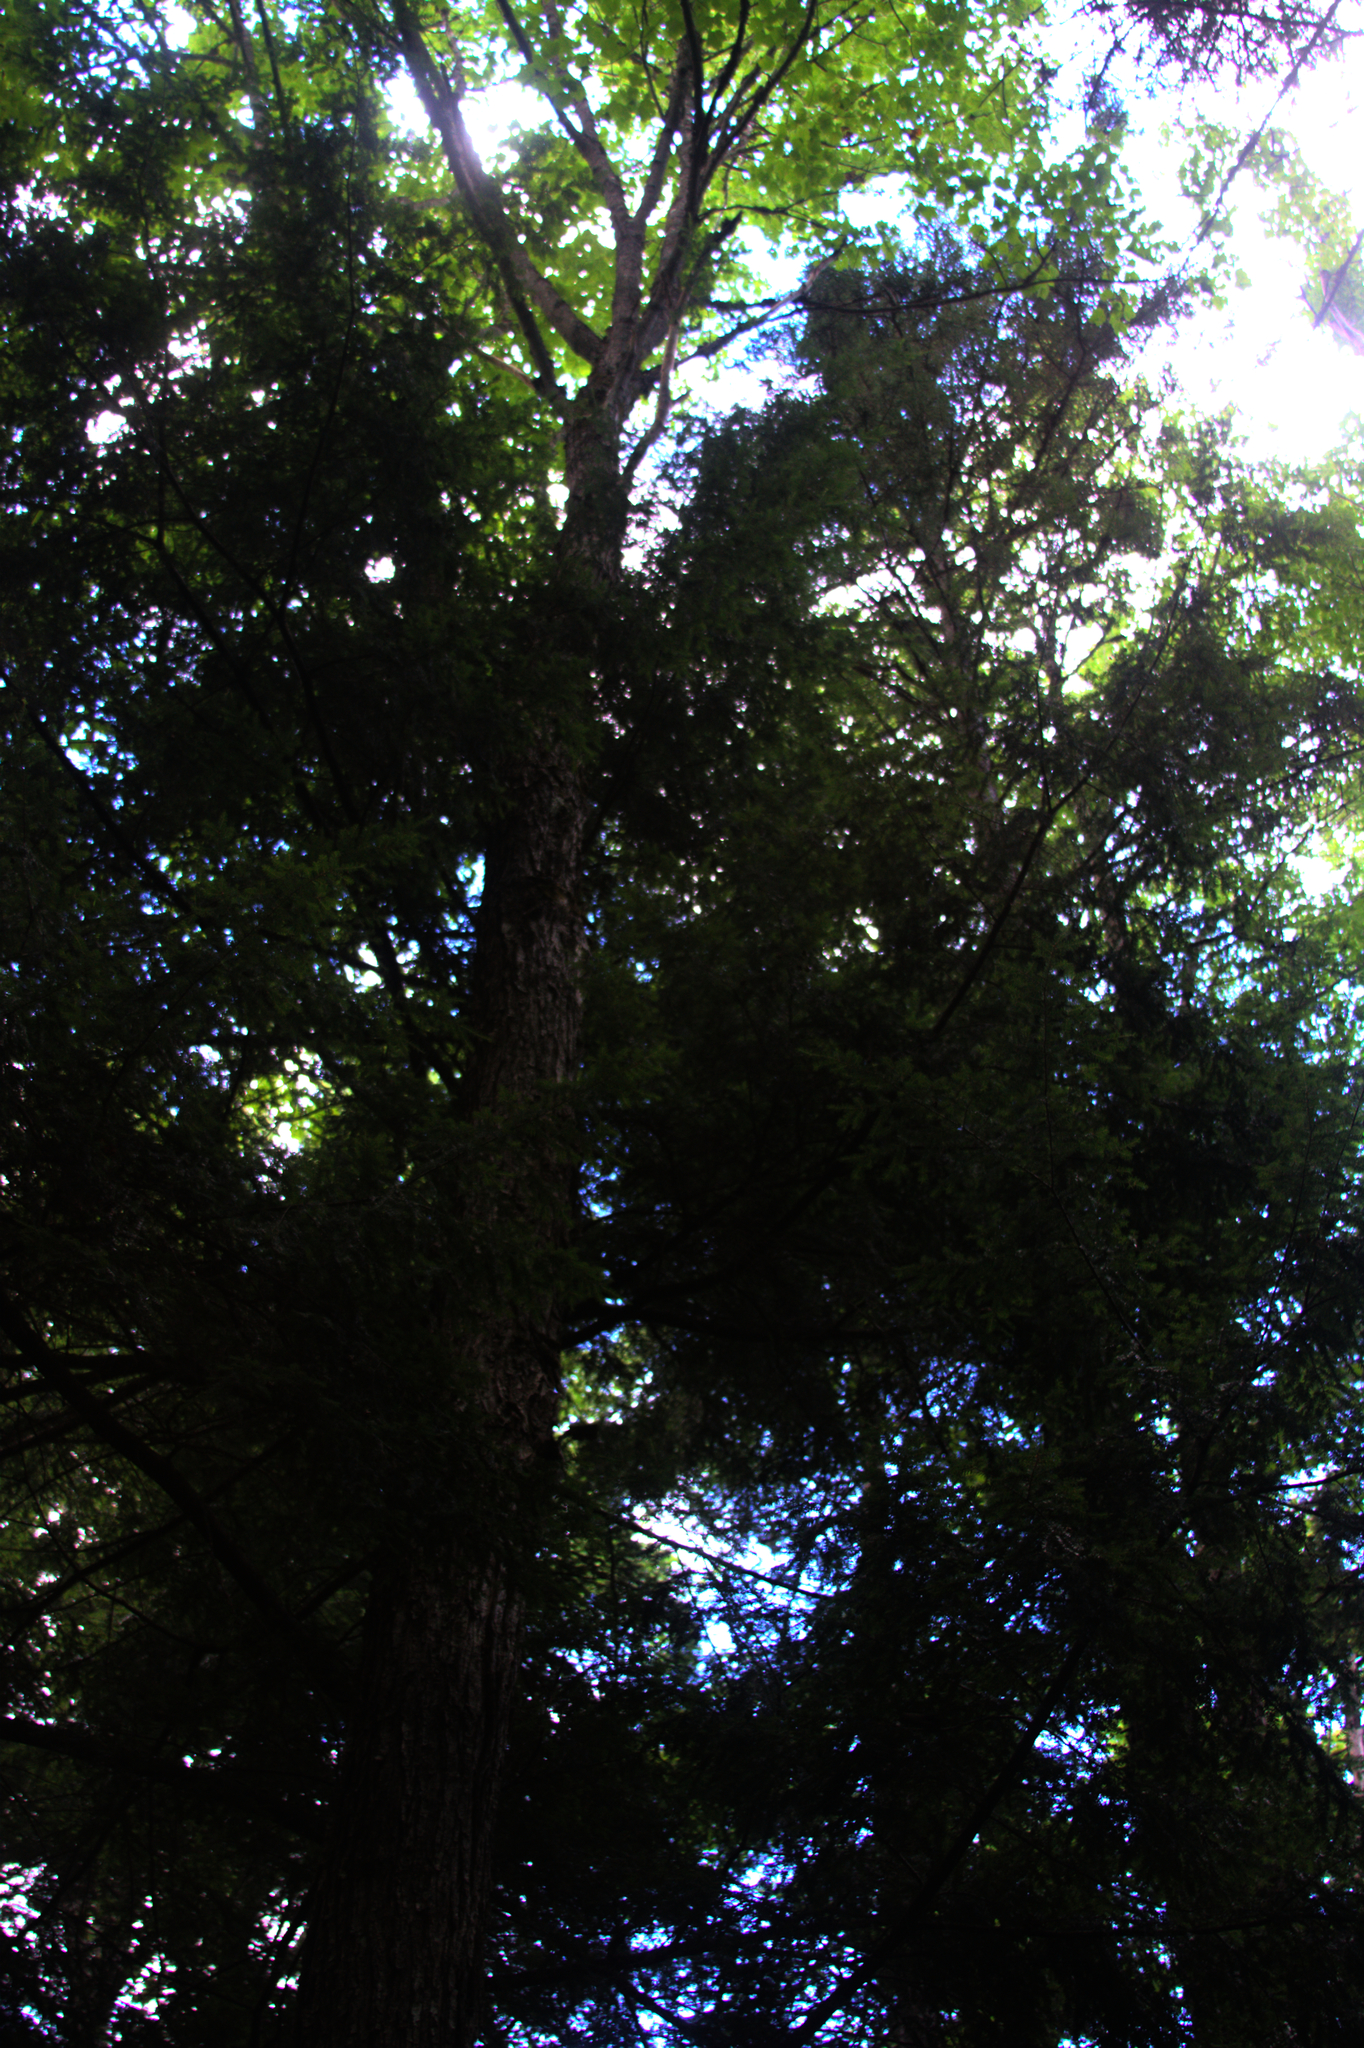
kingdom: Plantae
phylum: Tracheophyta
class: Magnoliopsida
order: Sapindales
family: Sapindaceae
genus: Acer
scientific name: Acer rubrum
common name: Red maple
